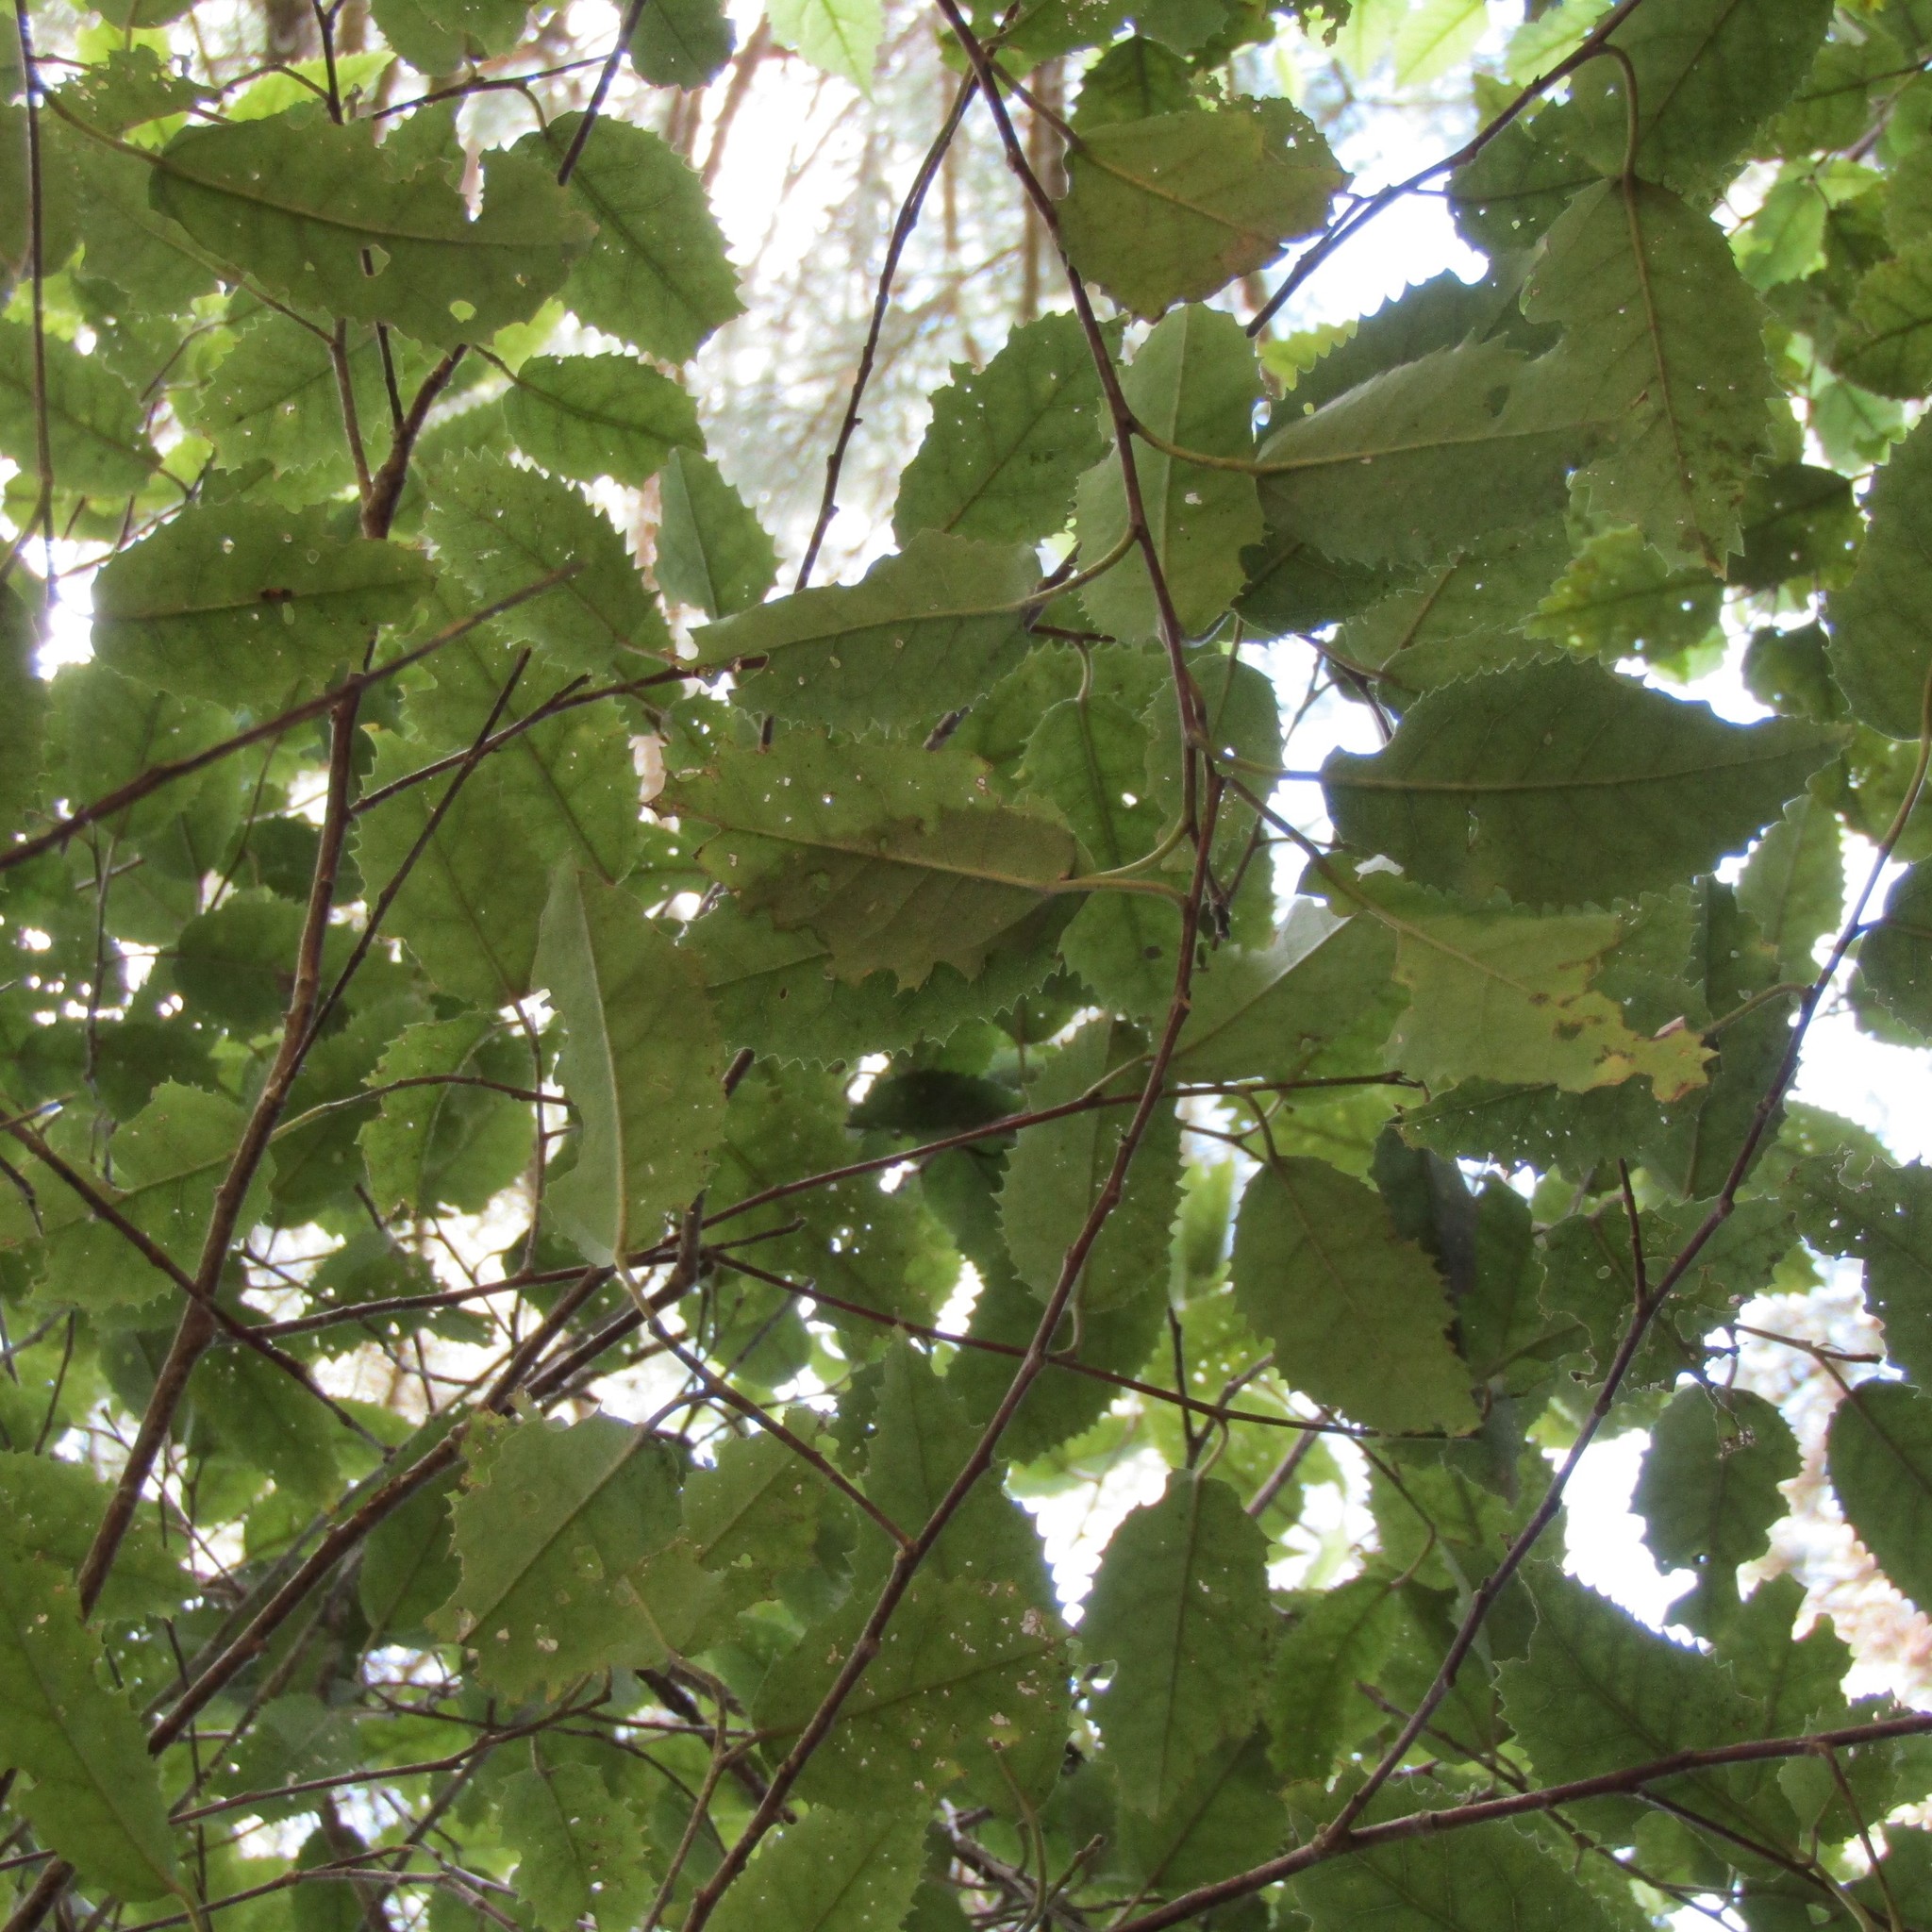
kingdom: Plantae
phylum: Tracheophyta
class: Magnoliopsida
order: Malvales
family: Malvaceae
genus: Hoheria
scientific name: Hoheria populnea
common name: Lacebark
